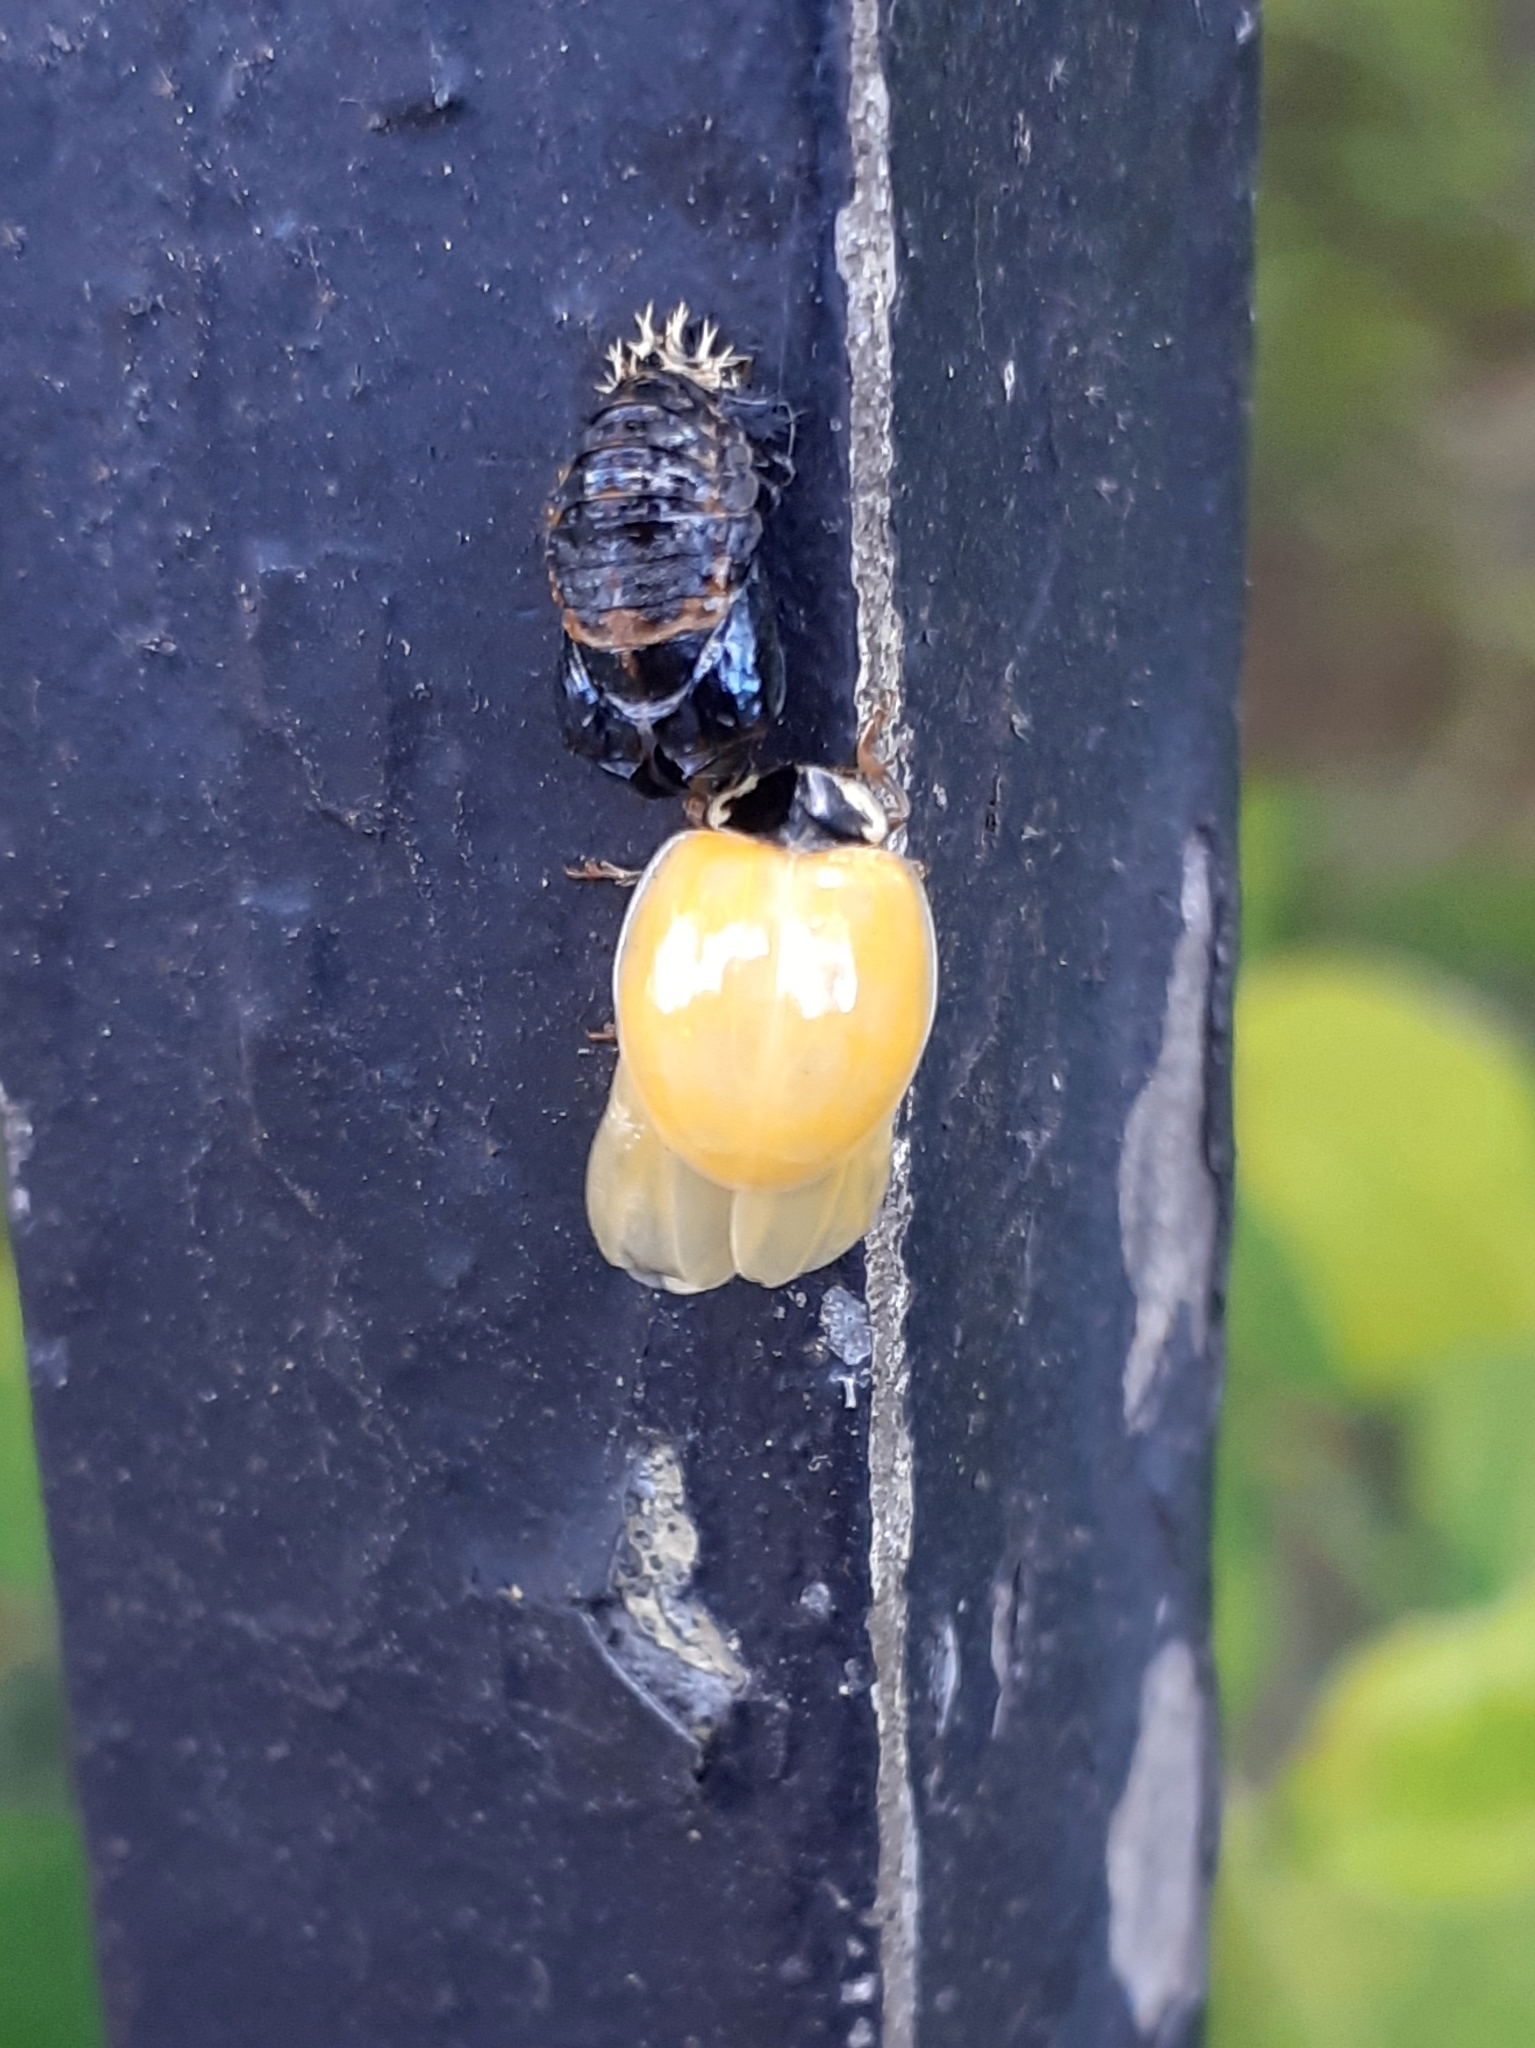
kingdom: Animalia
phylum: Arthropoda
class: Insecta
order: Coleoptera
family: Coccinellidae
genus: Harmonia
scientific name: Harmonia axyridis
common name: Harlequin ladybird
